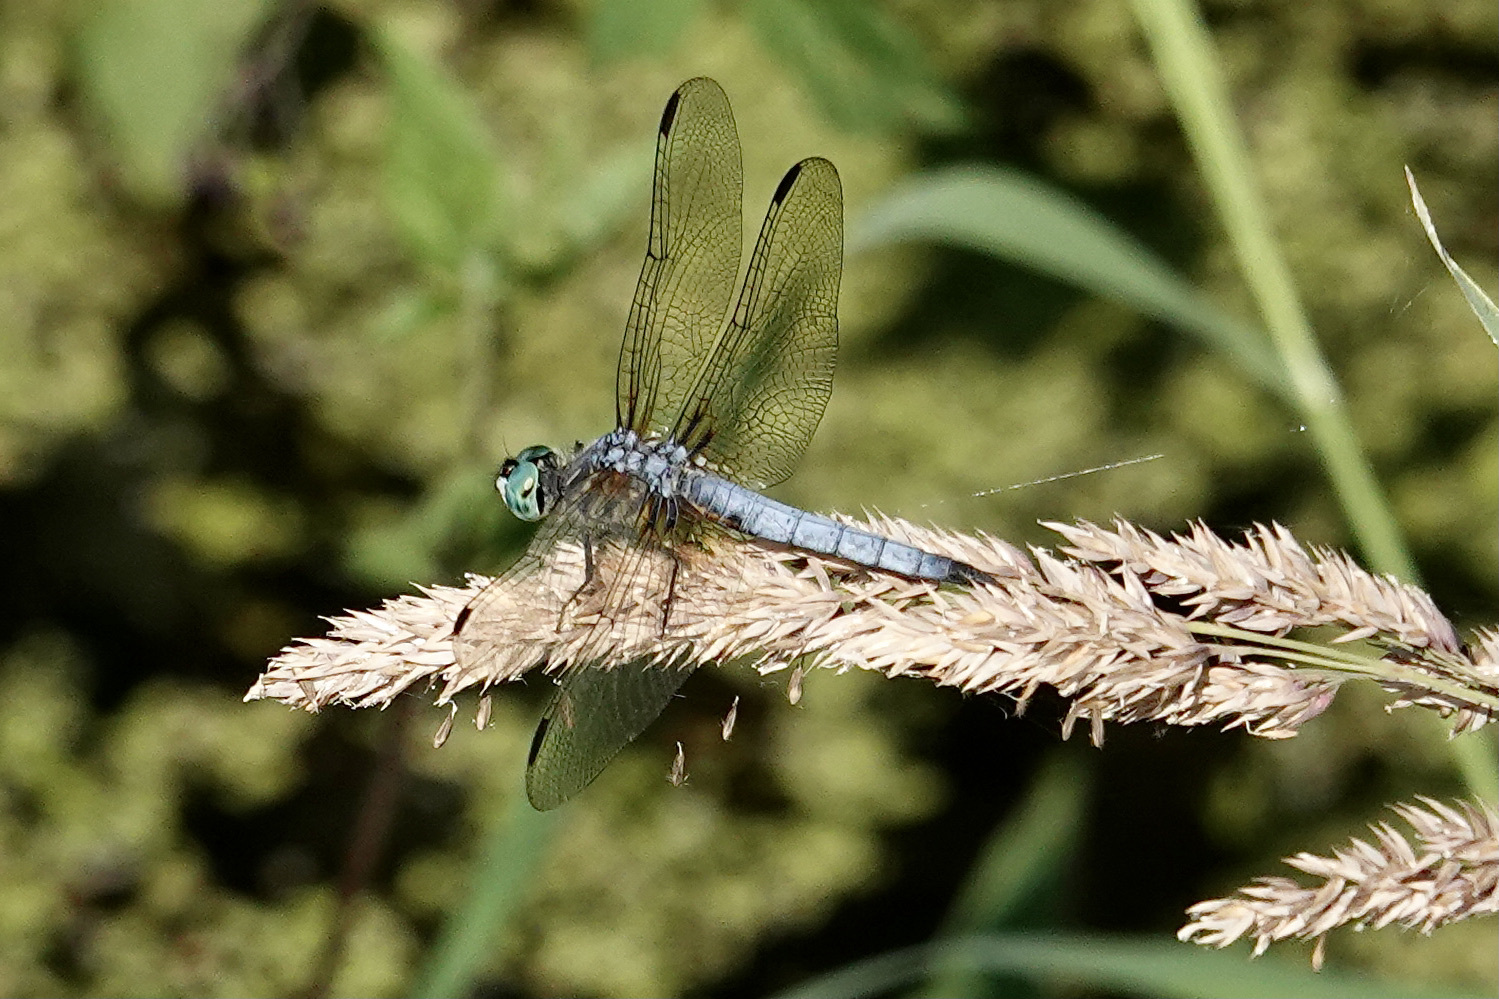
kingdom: Animalia
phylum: Arthropoda
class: Insecta
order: Odonata
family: Libellulidae
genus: Pachydiplax
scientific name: Pachydiplax longipennis
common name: Blue dasher
